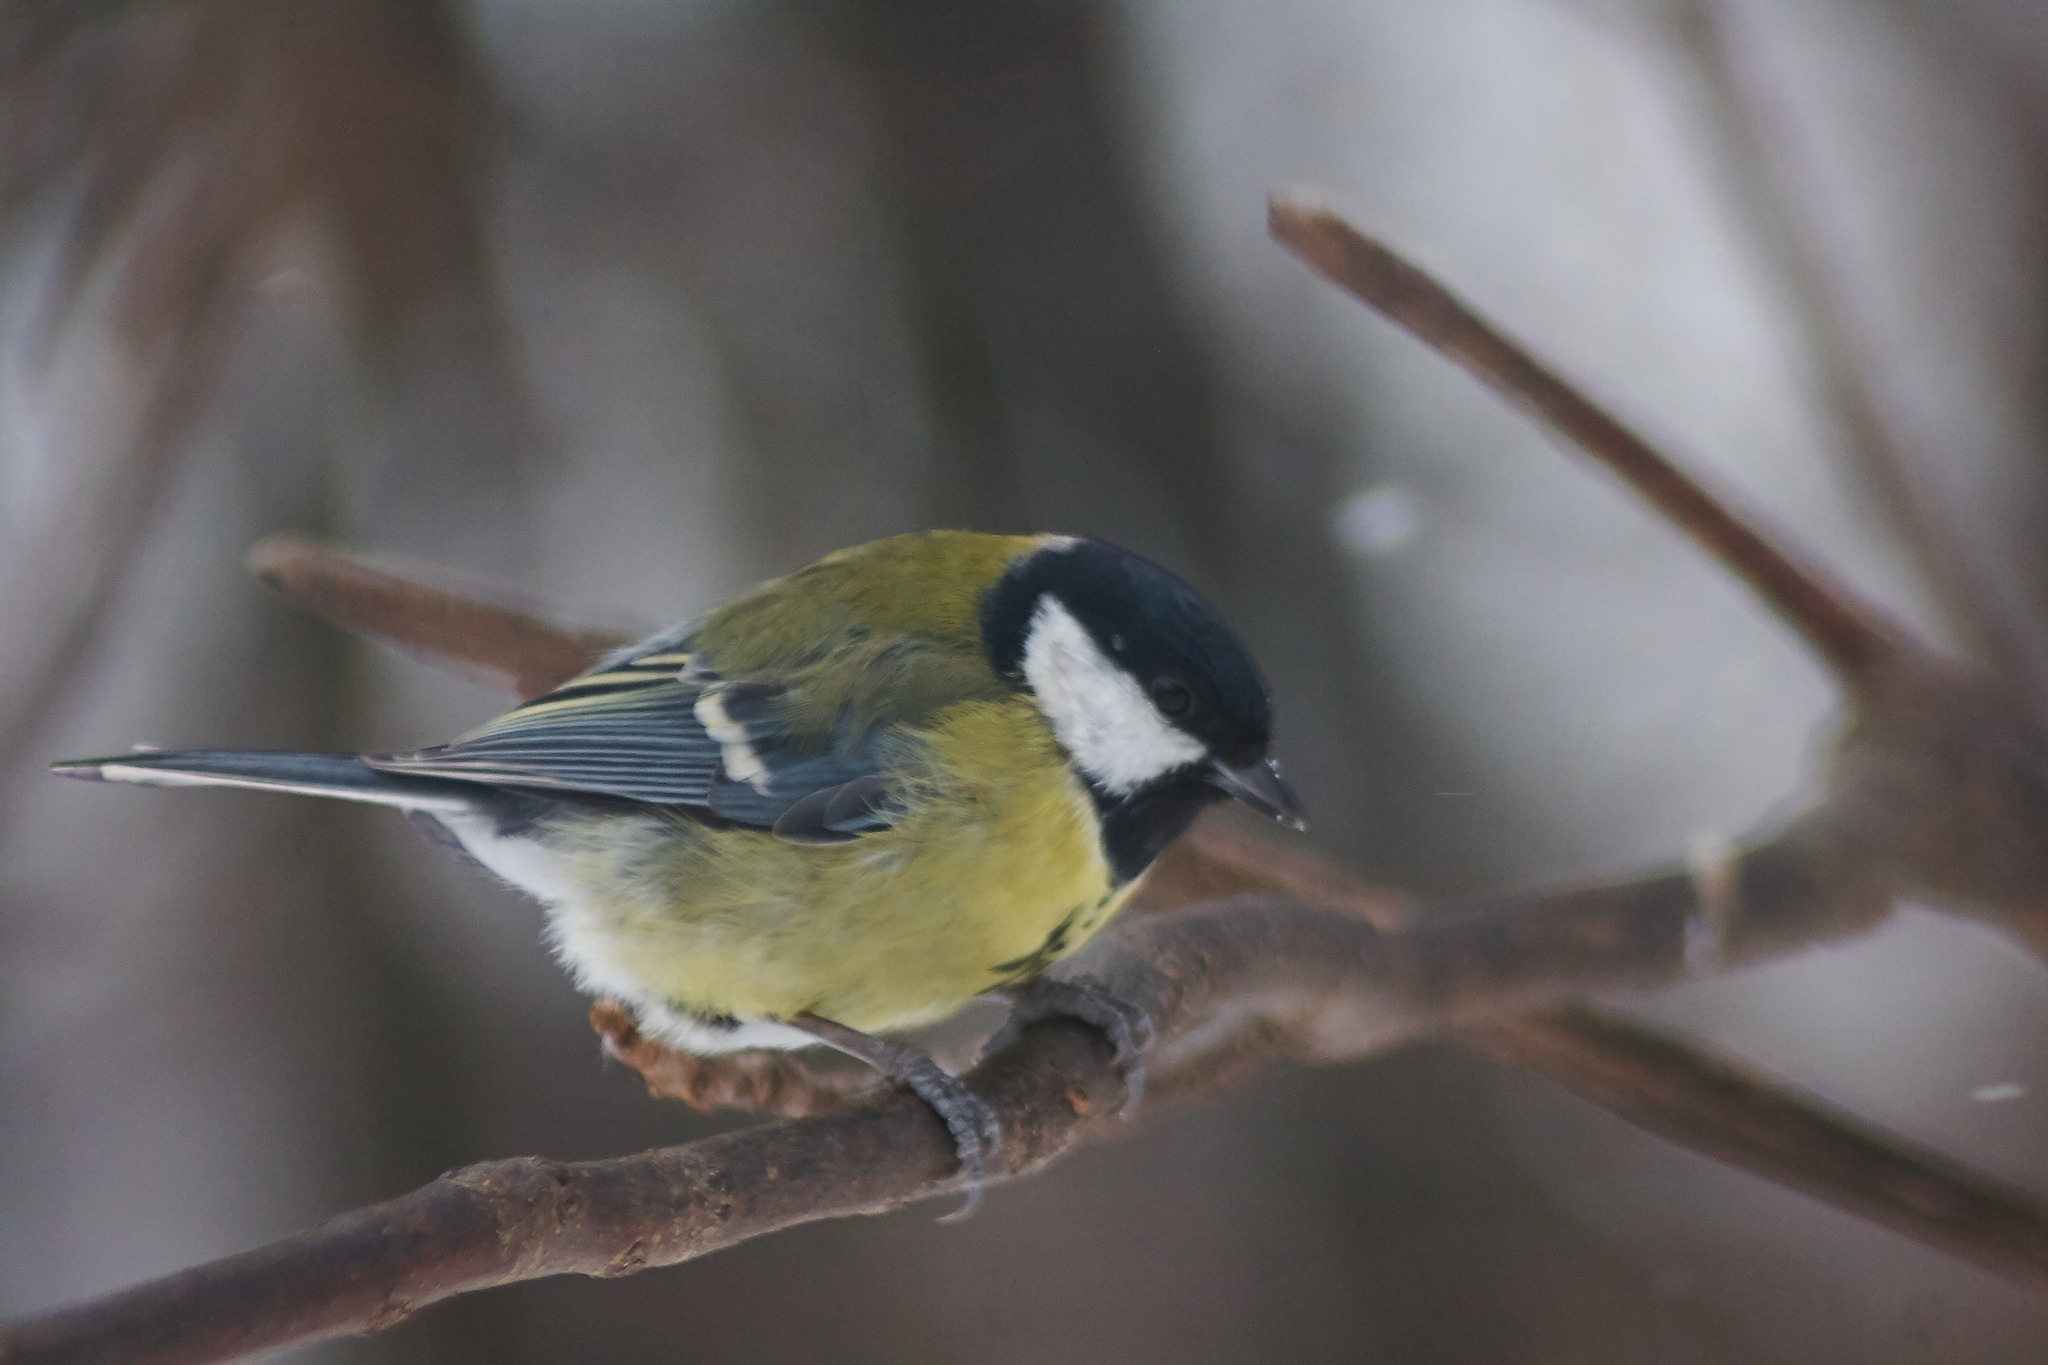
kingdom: Animalia
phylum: Chordata
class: Aves
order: Passeriformes
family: Paridae
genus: Parus
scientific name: Parus major
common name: Great tit
